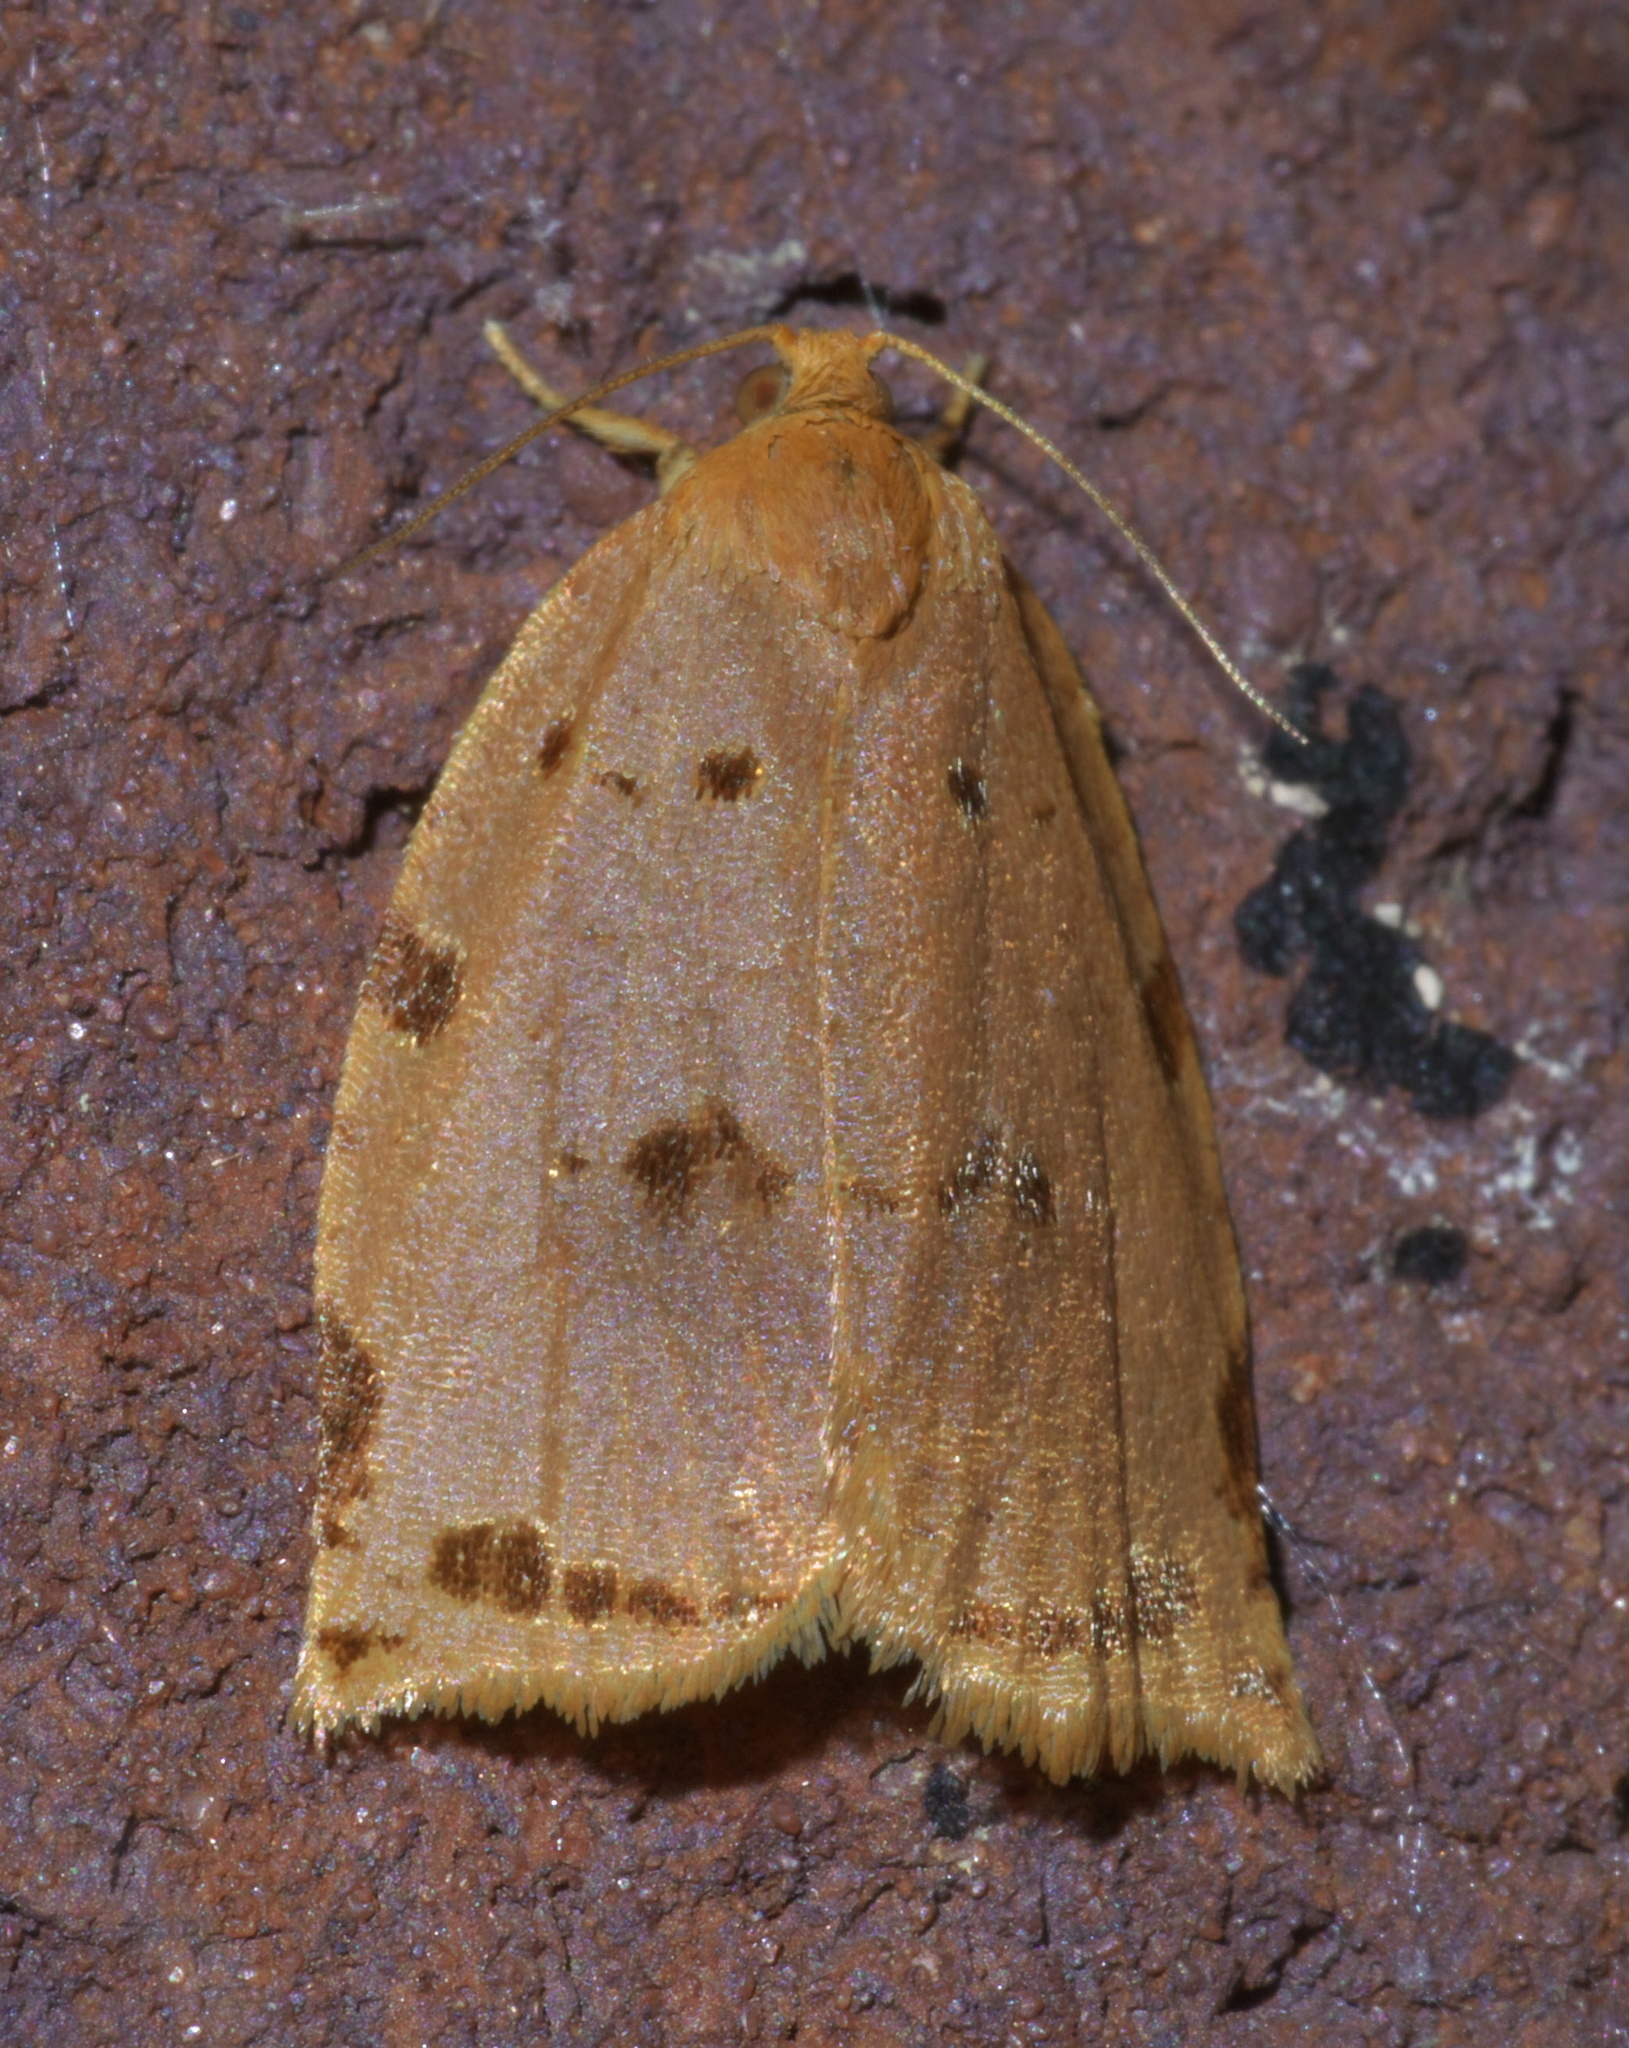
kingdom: Animalia
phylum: Arthropoda
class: Insecta
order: Lepidoptera
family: Tortricidae
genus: Archips
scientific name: Archips rileyana
